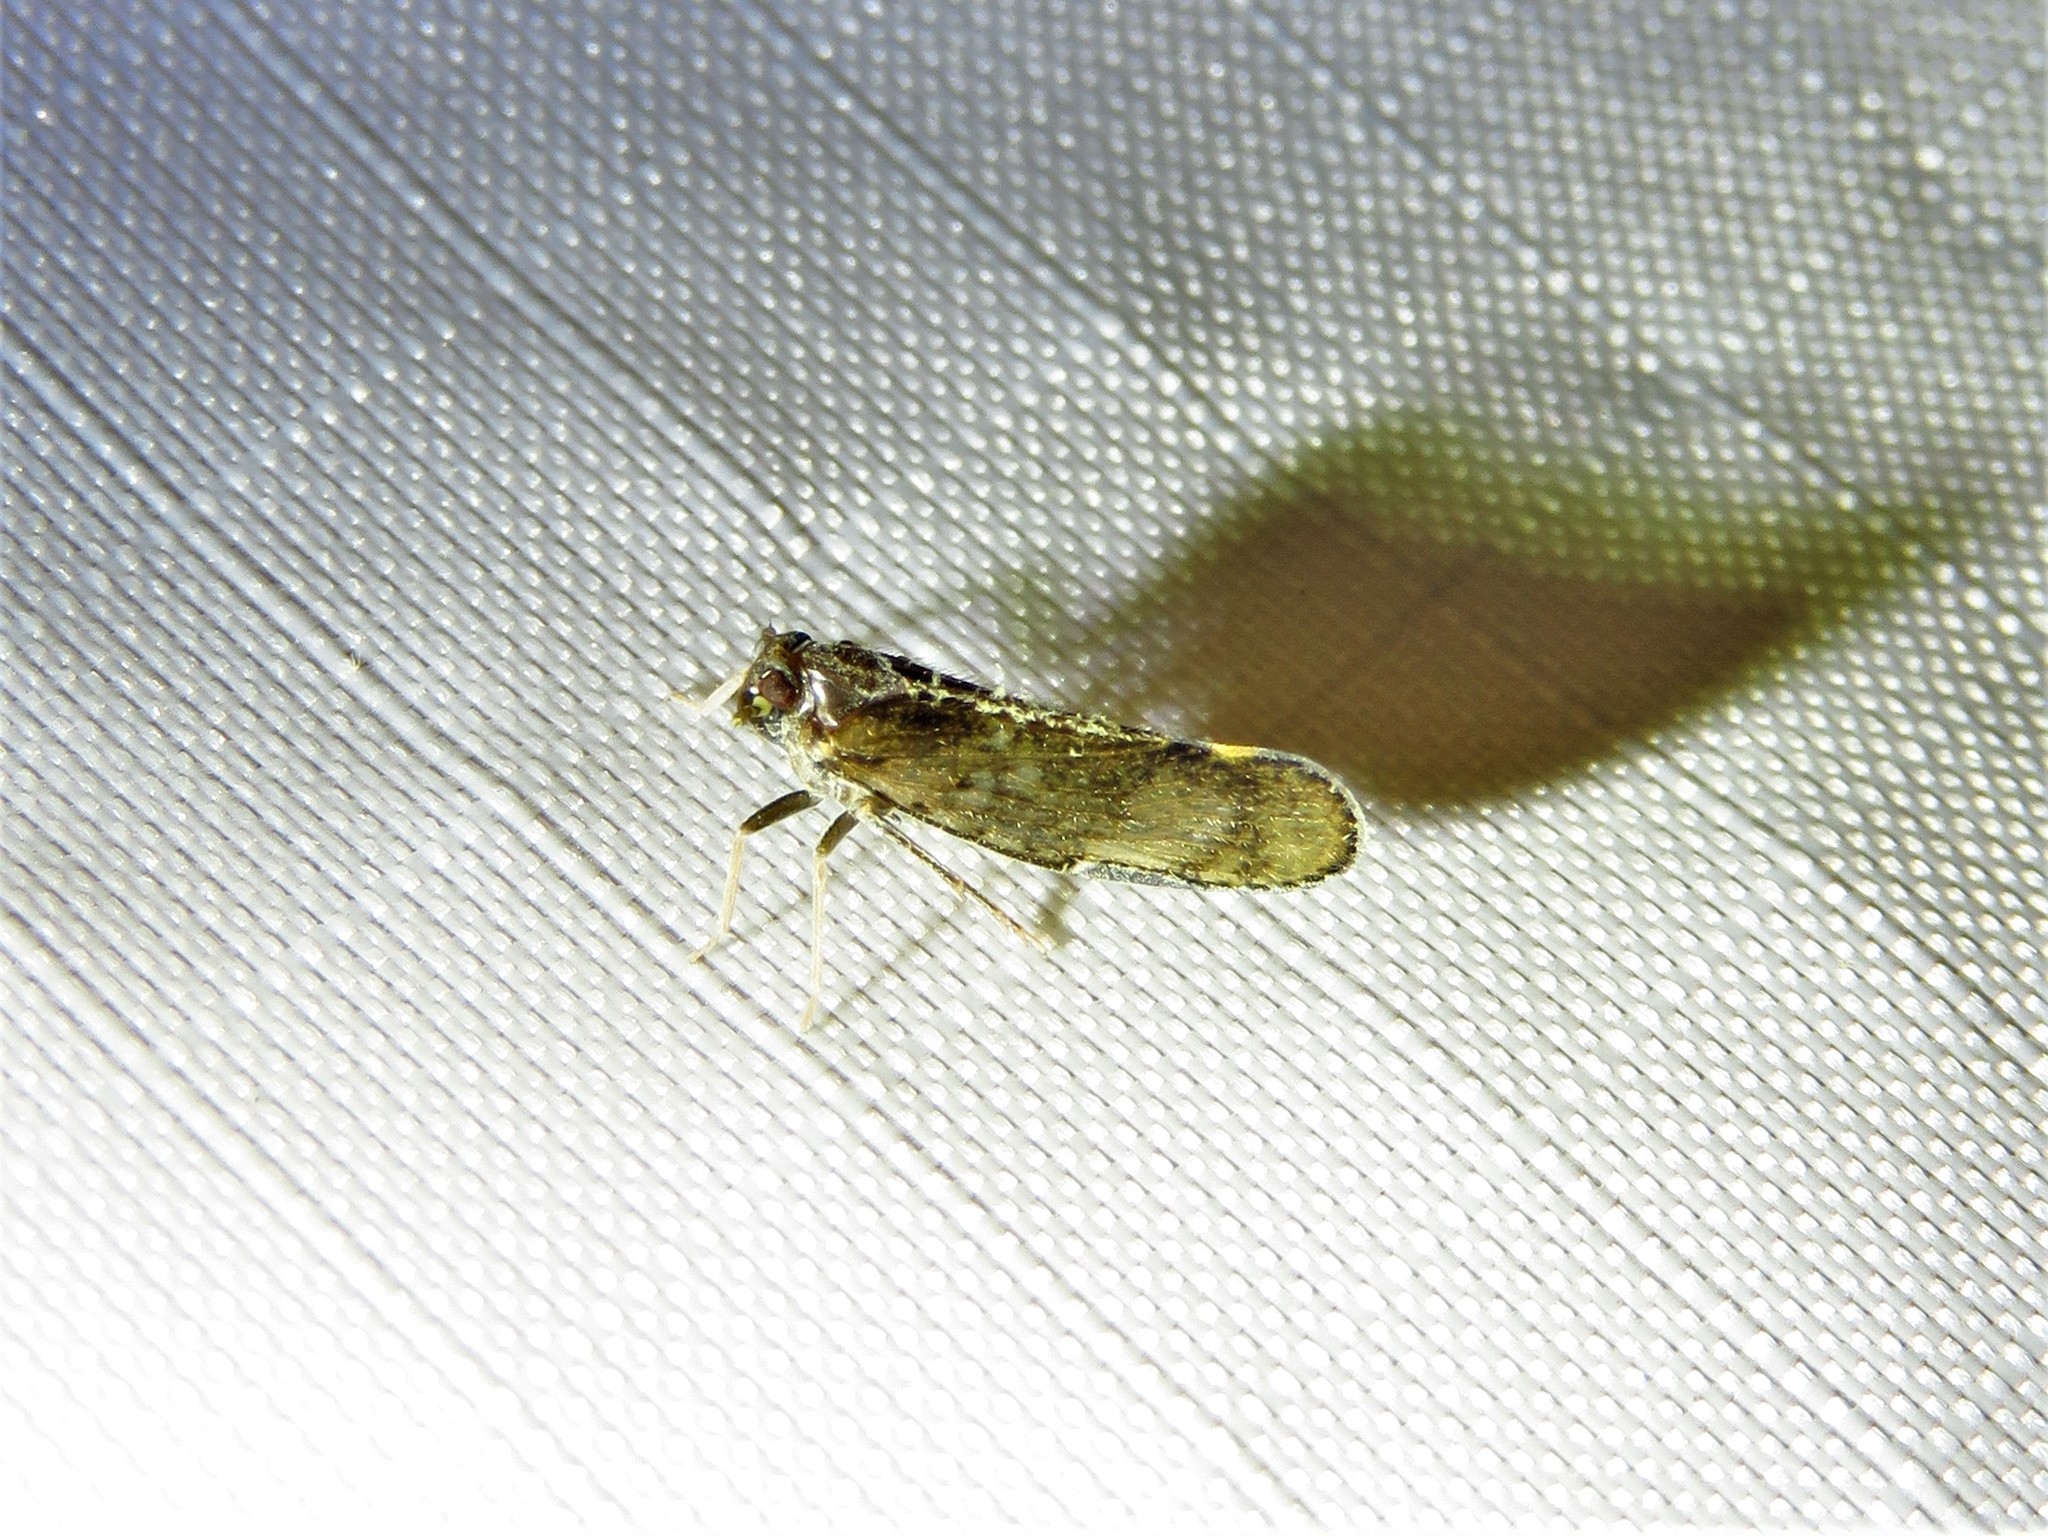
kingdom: Animalia
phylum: Arthropoda
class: Insecta
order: Hemiptera
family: Cixiidae
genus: Pintalia
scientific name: Pintalia vibex
